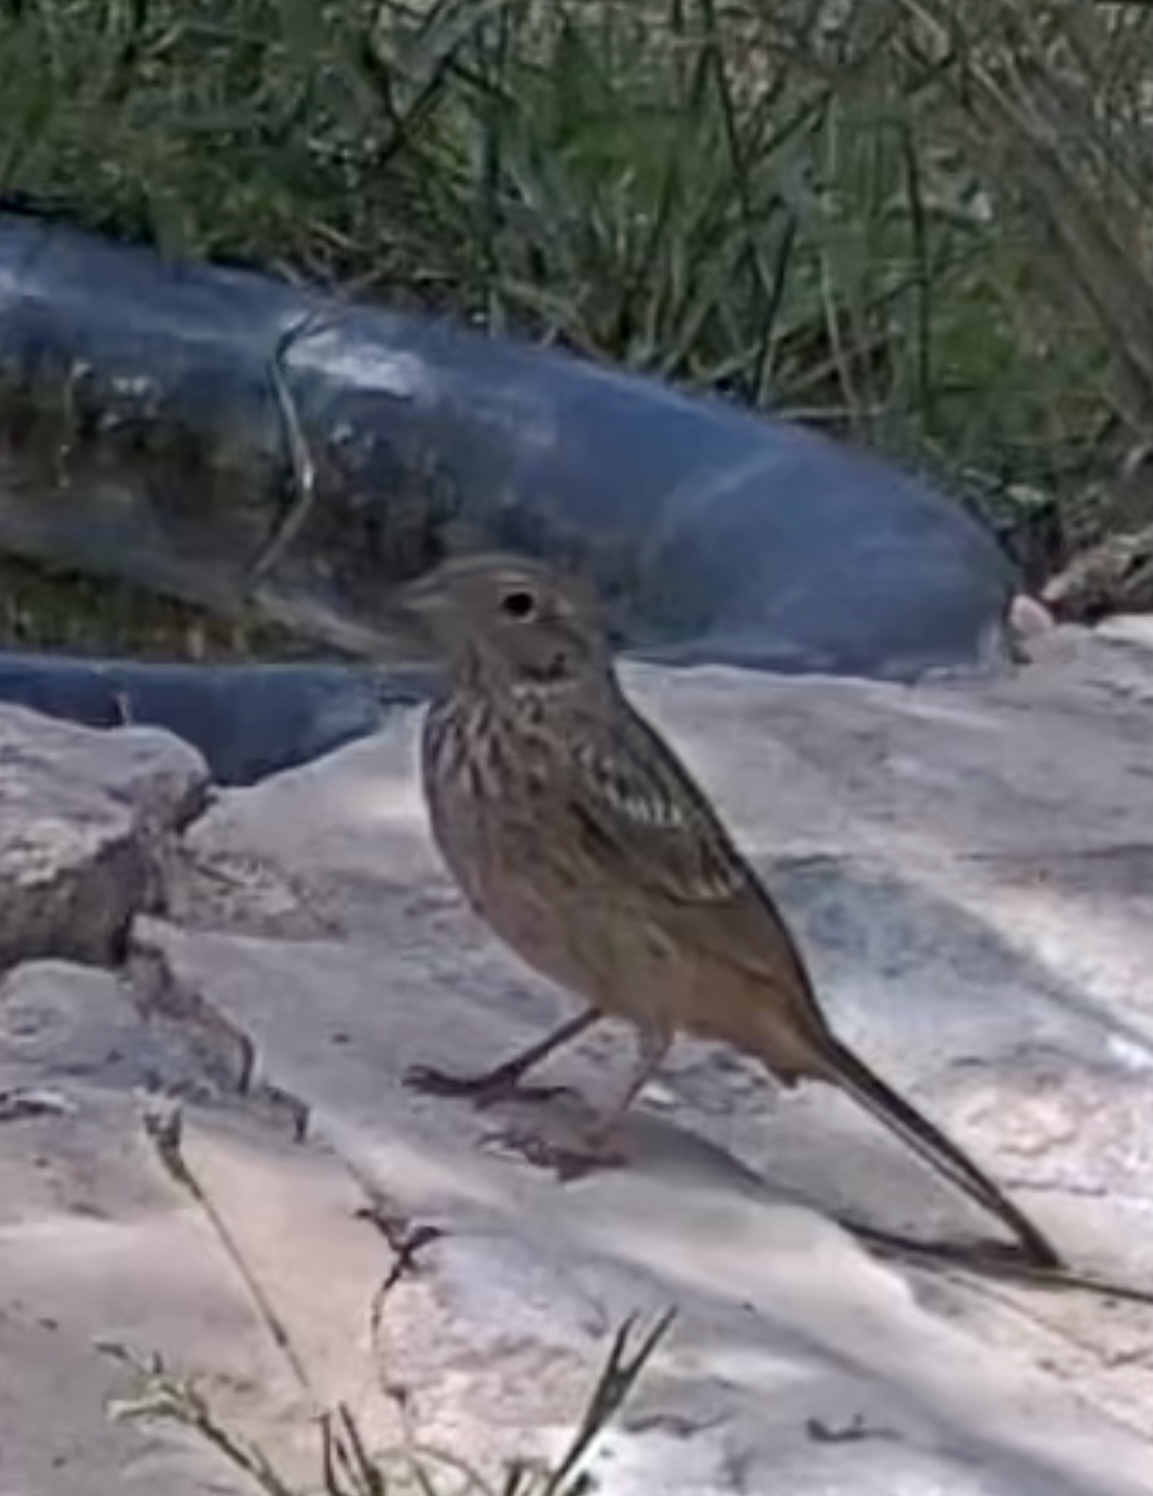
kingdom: Animalia
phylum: Chordata
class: Aves
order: Passeriformes
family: Emberizidae
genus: Emberiza
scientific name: Emberiza calandra
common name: Corn bunting
